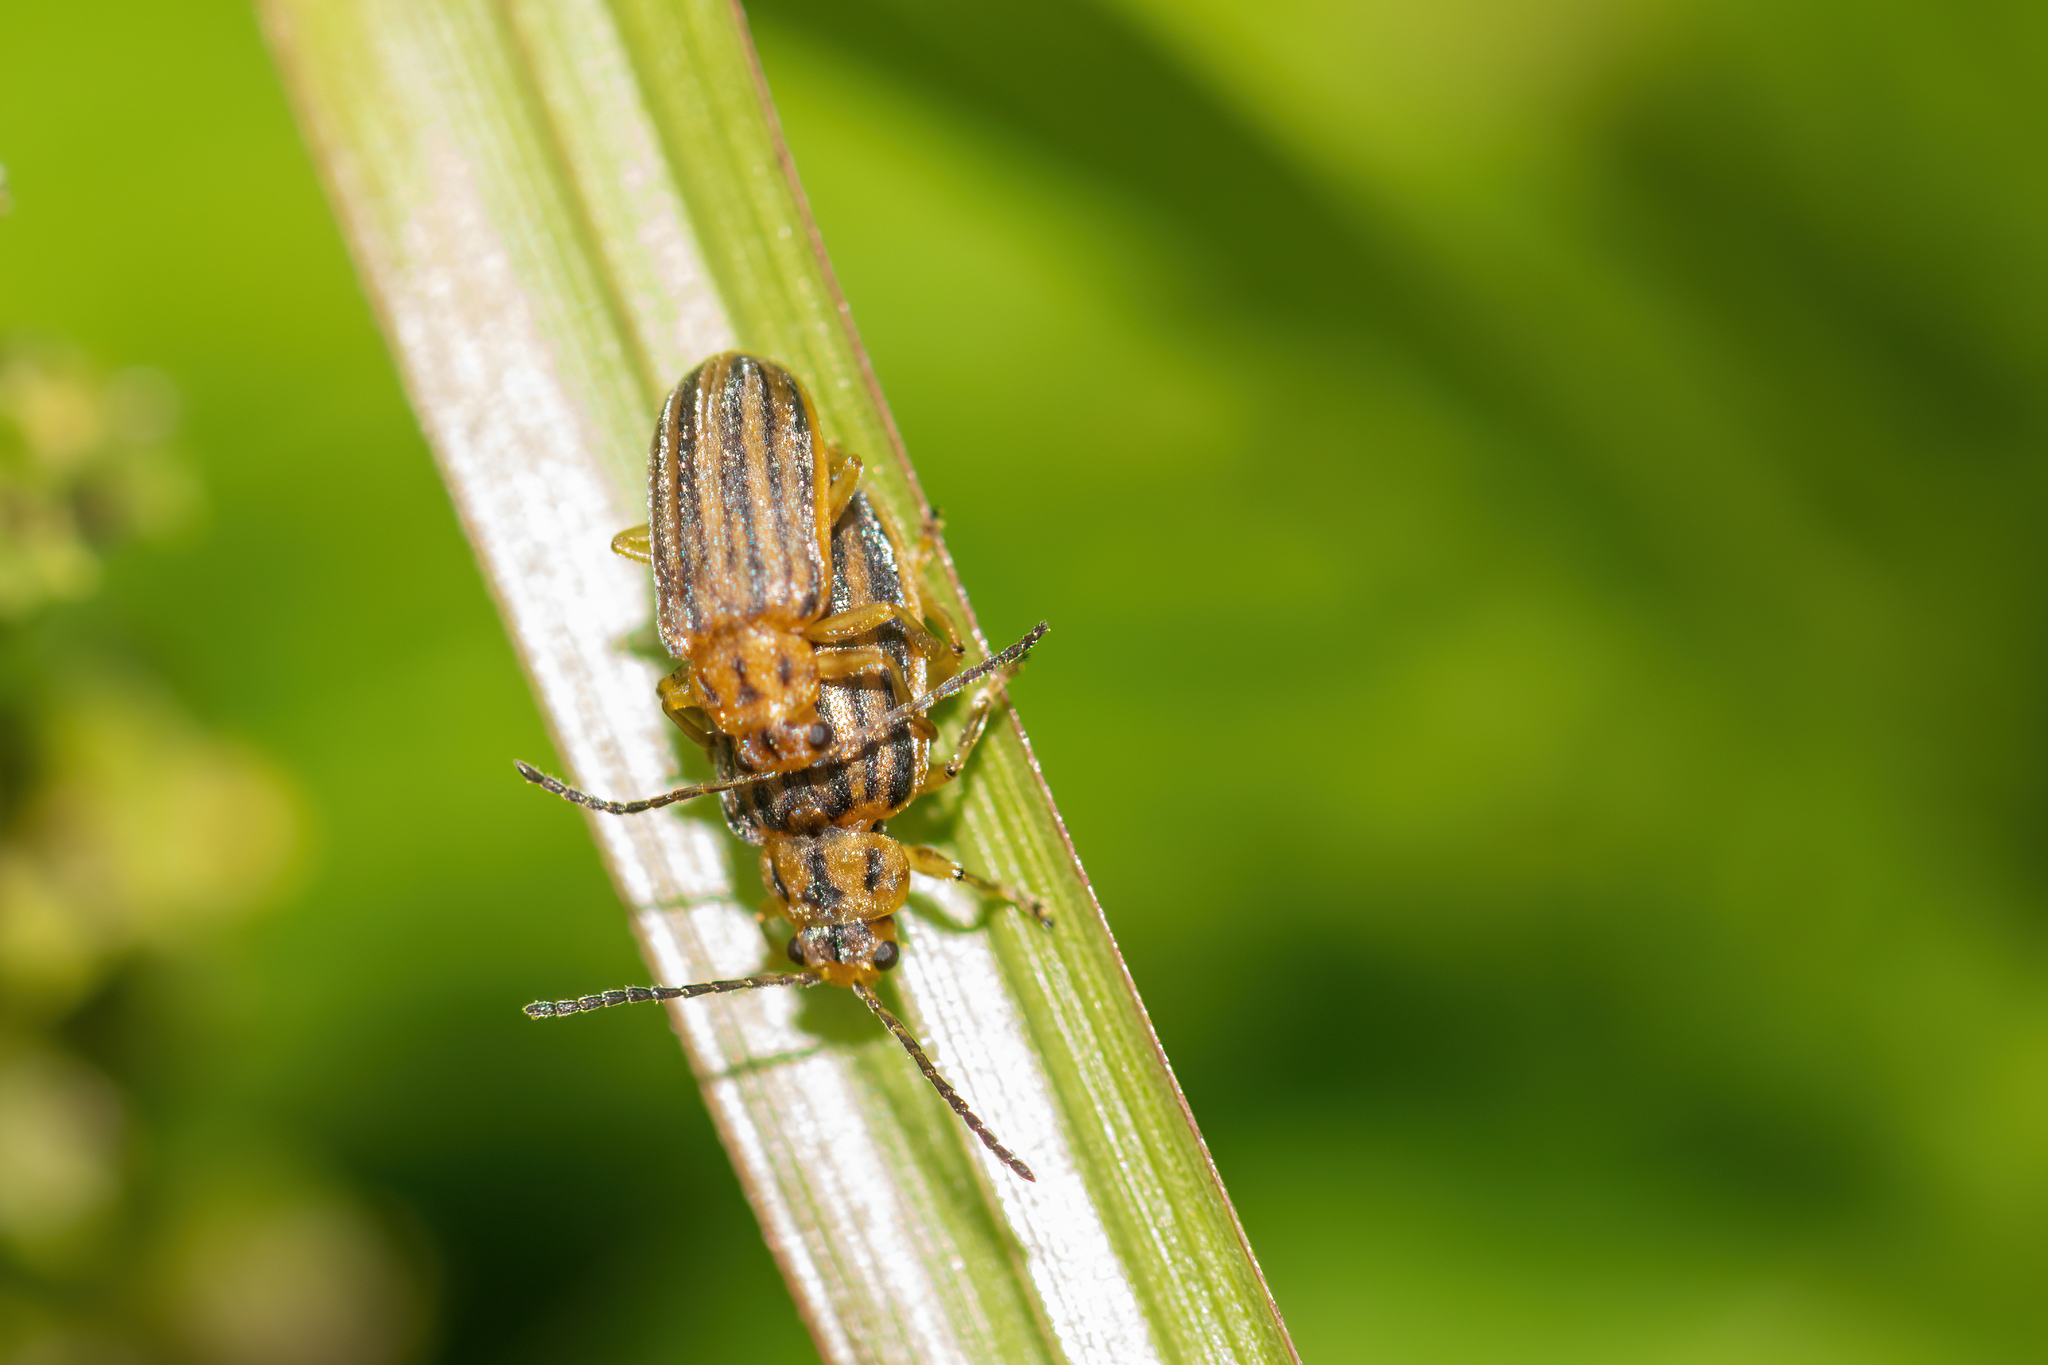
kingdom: Animalia
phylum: Arthropoda
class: Insecta
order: Coleoptera
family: Chrysomelidae
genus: Ophraella
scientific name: Ophraella slobodkini
